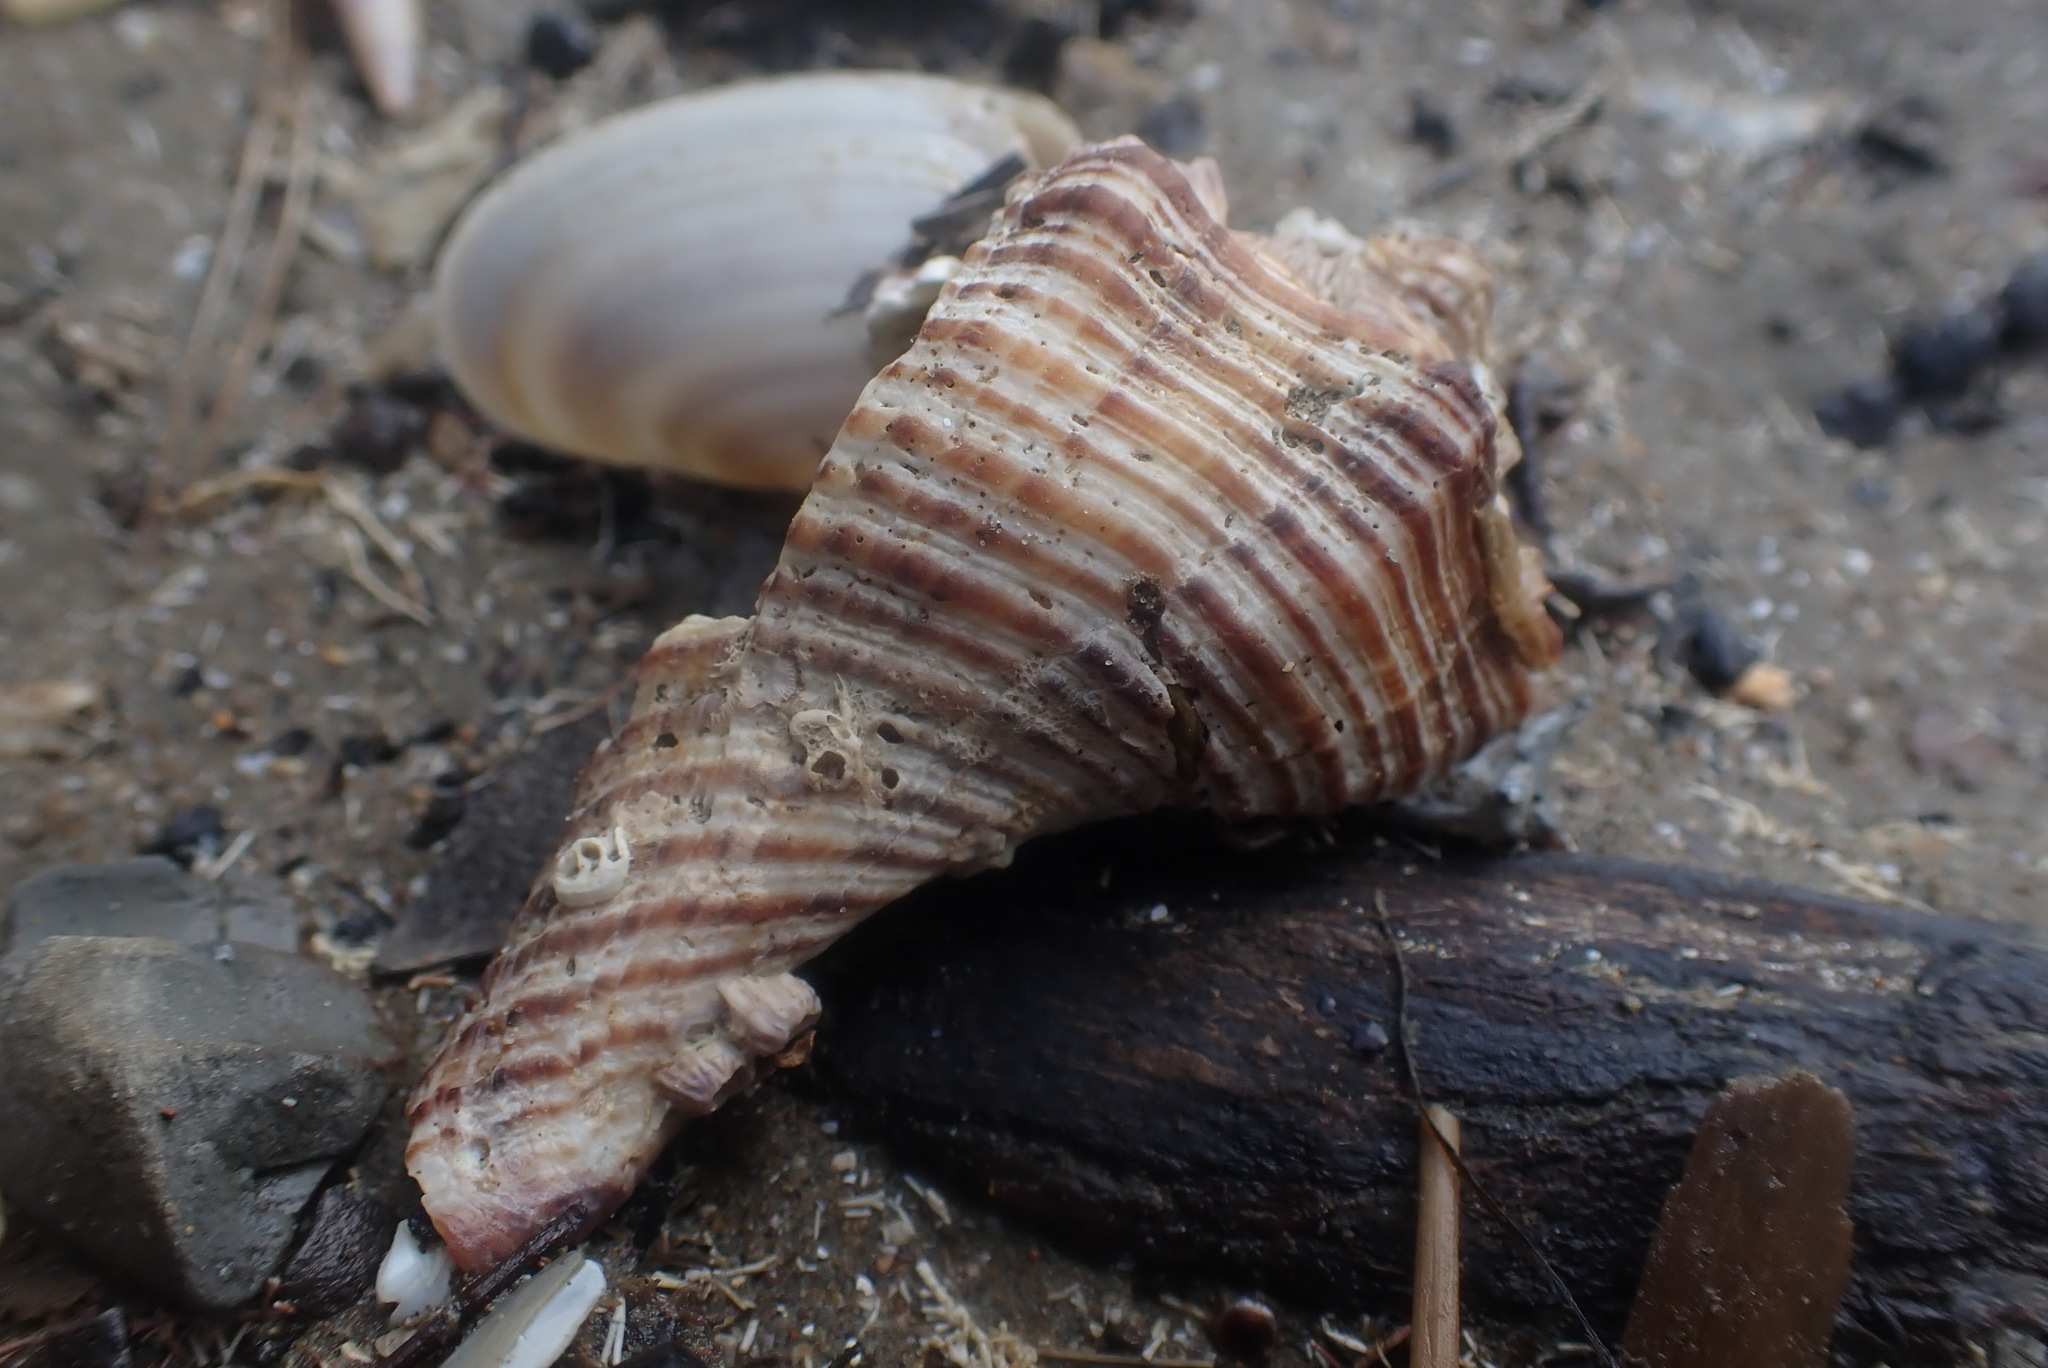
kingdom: Animalia
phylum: Mollusca
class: Gastropoda
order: Neogastropoda
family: Austrosiphonidae
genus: Penion
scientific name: Penion sulcatus
